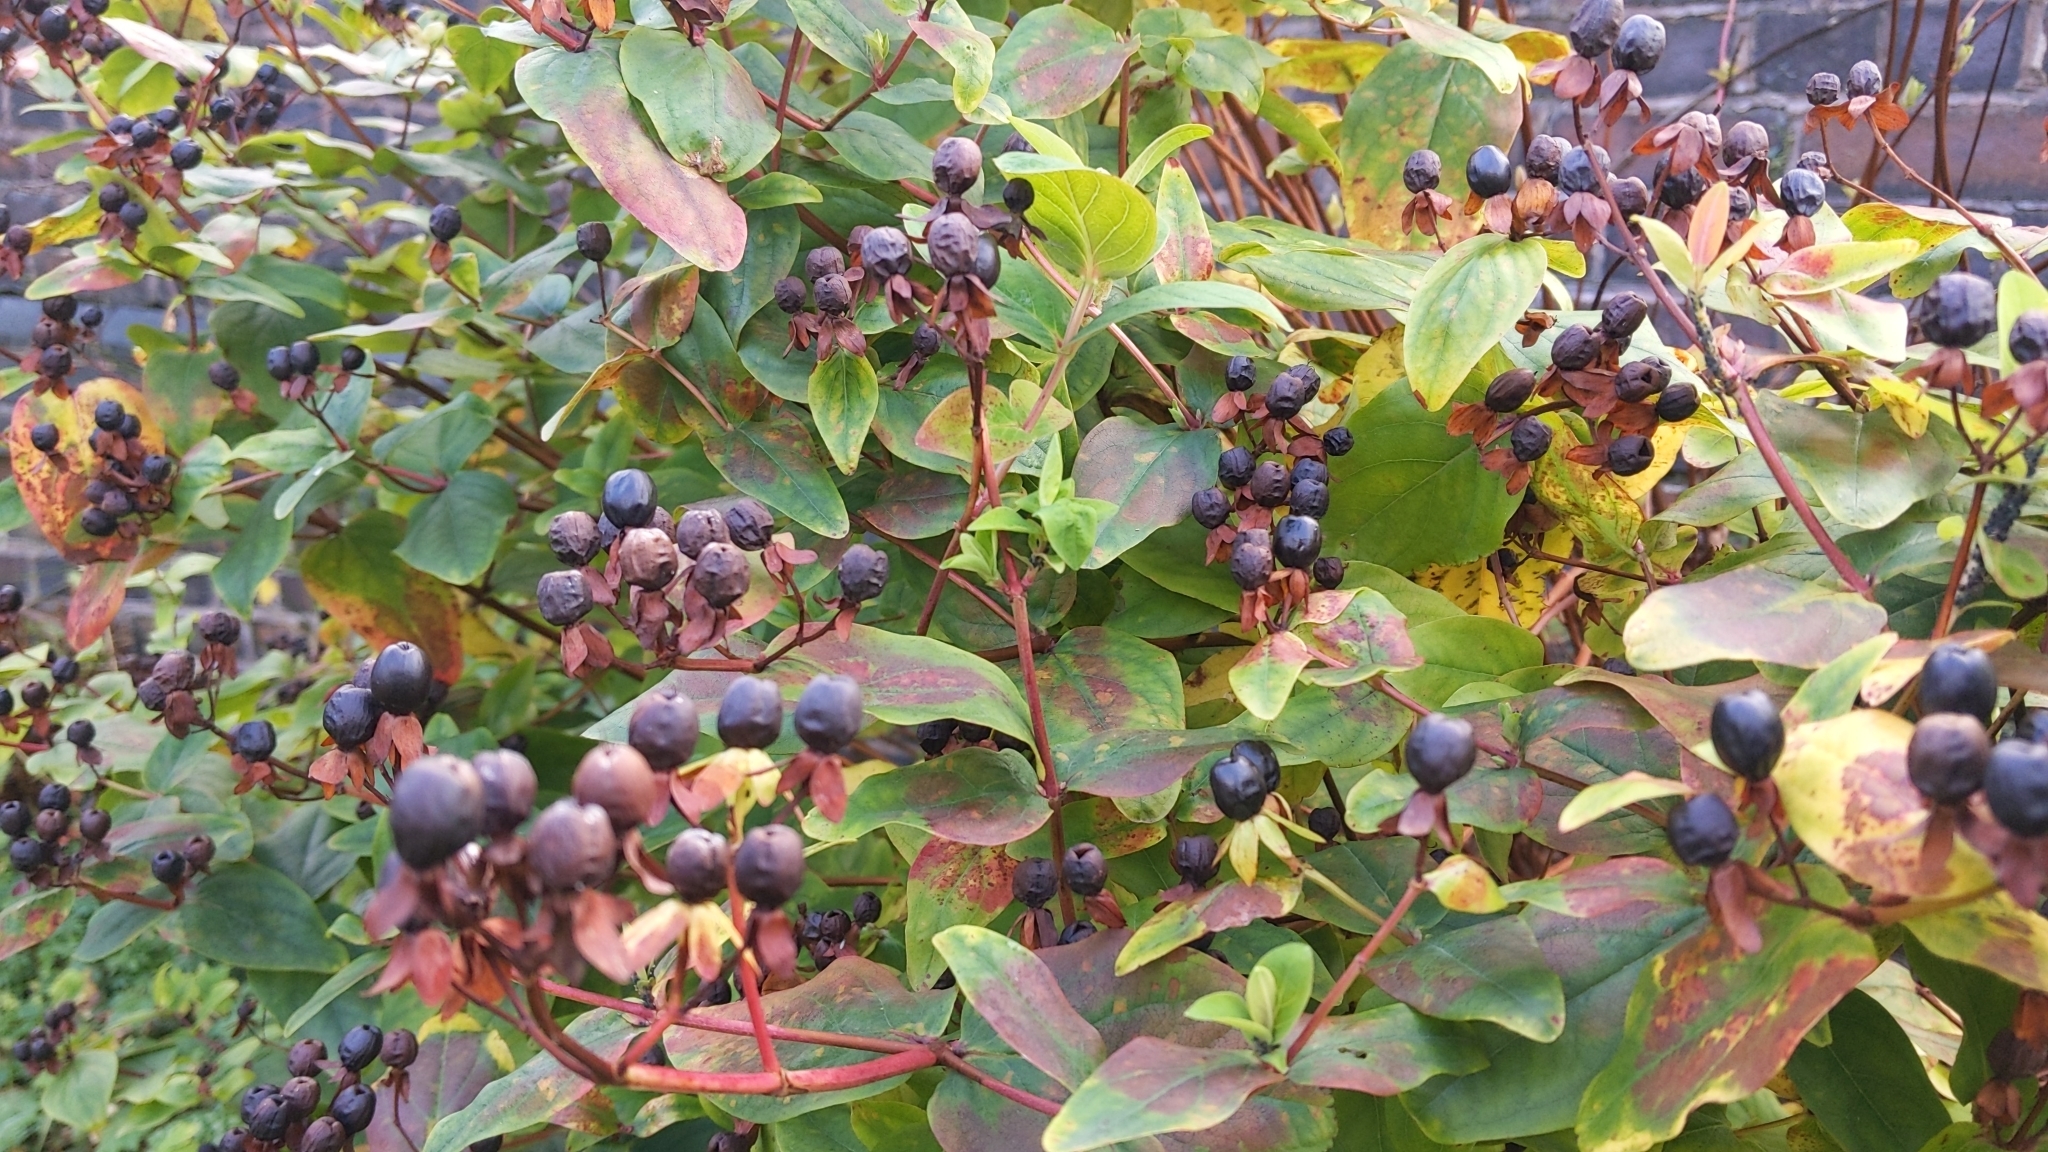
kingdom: Plantae
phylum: Tracheophyta
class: Magnoliopsida
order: Malpighiales
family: Hypericaceae
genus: Hypericum
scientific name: Hypericum androsaemum
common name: Sweet-amber
